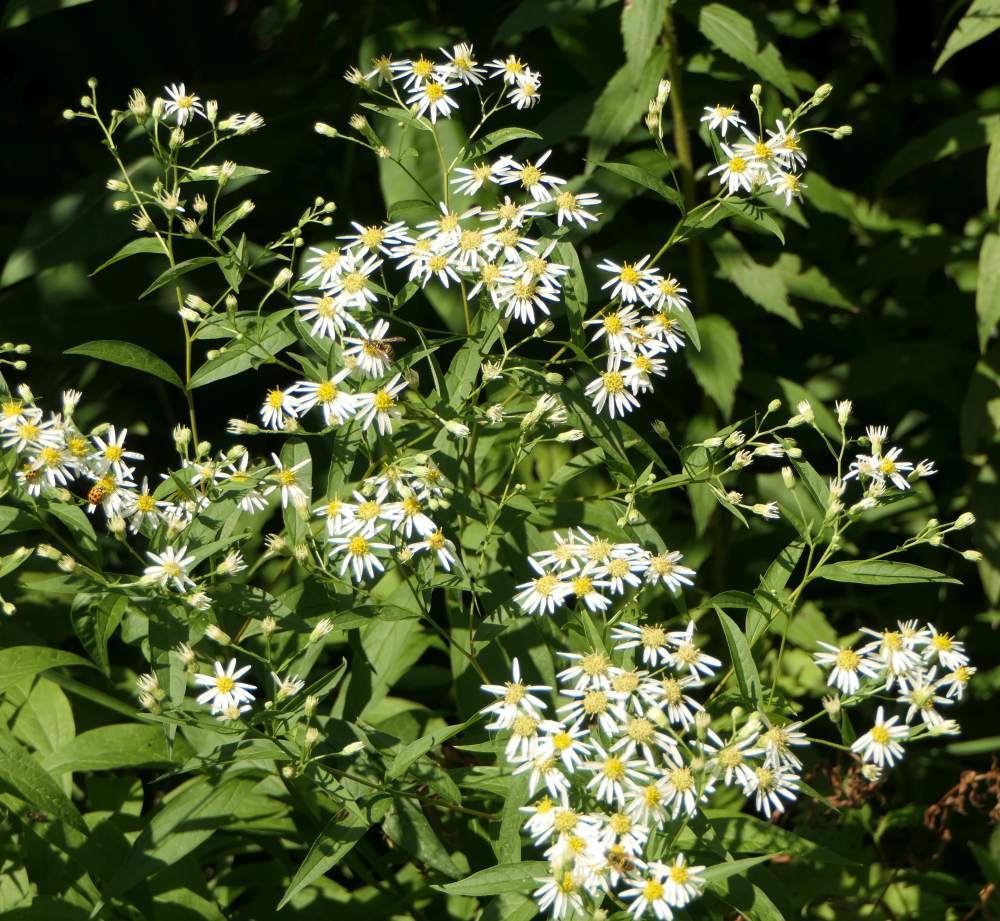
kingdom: Plantae
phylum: Tracheophyta
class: Magnoliopsida
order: Asterales
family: Asteraceae
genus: Doellingeria
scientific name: Doellingeria umbellata
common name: Flat-top white aster
